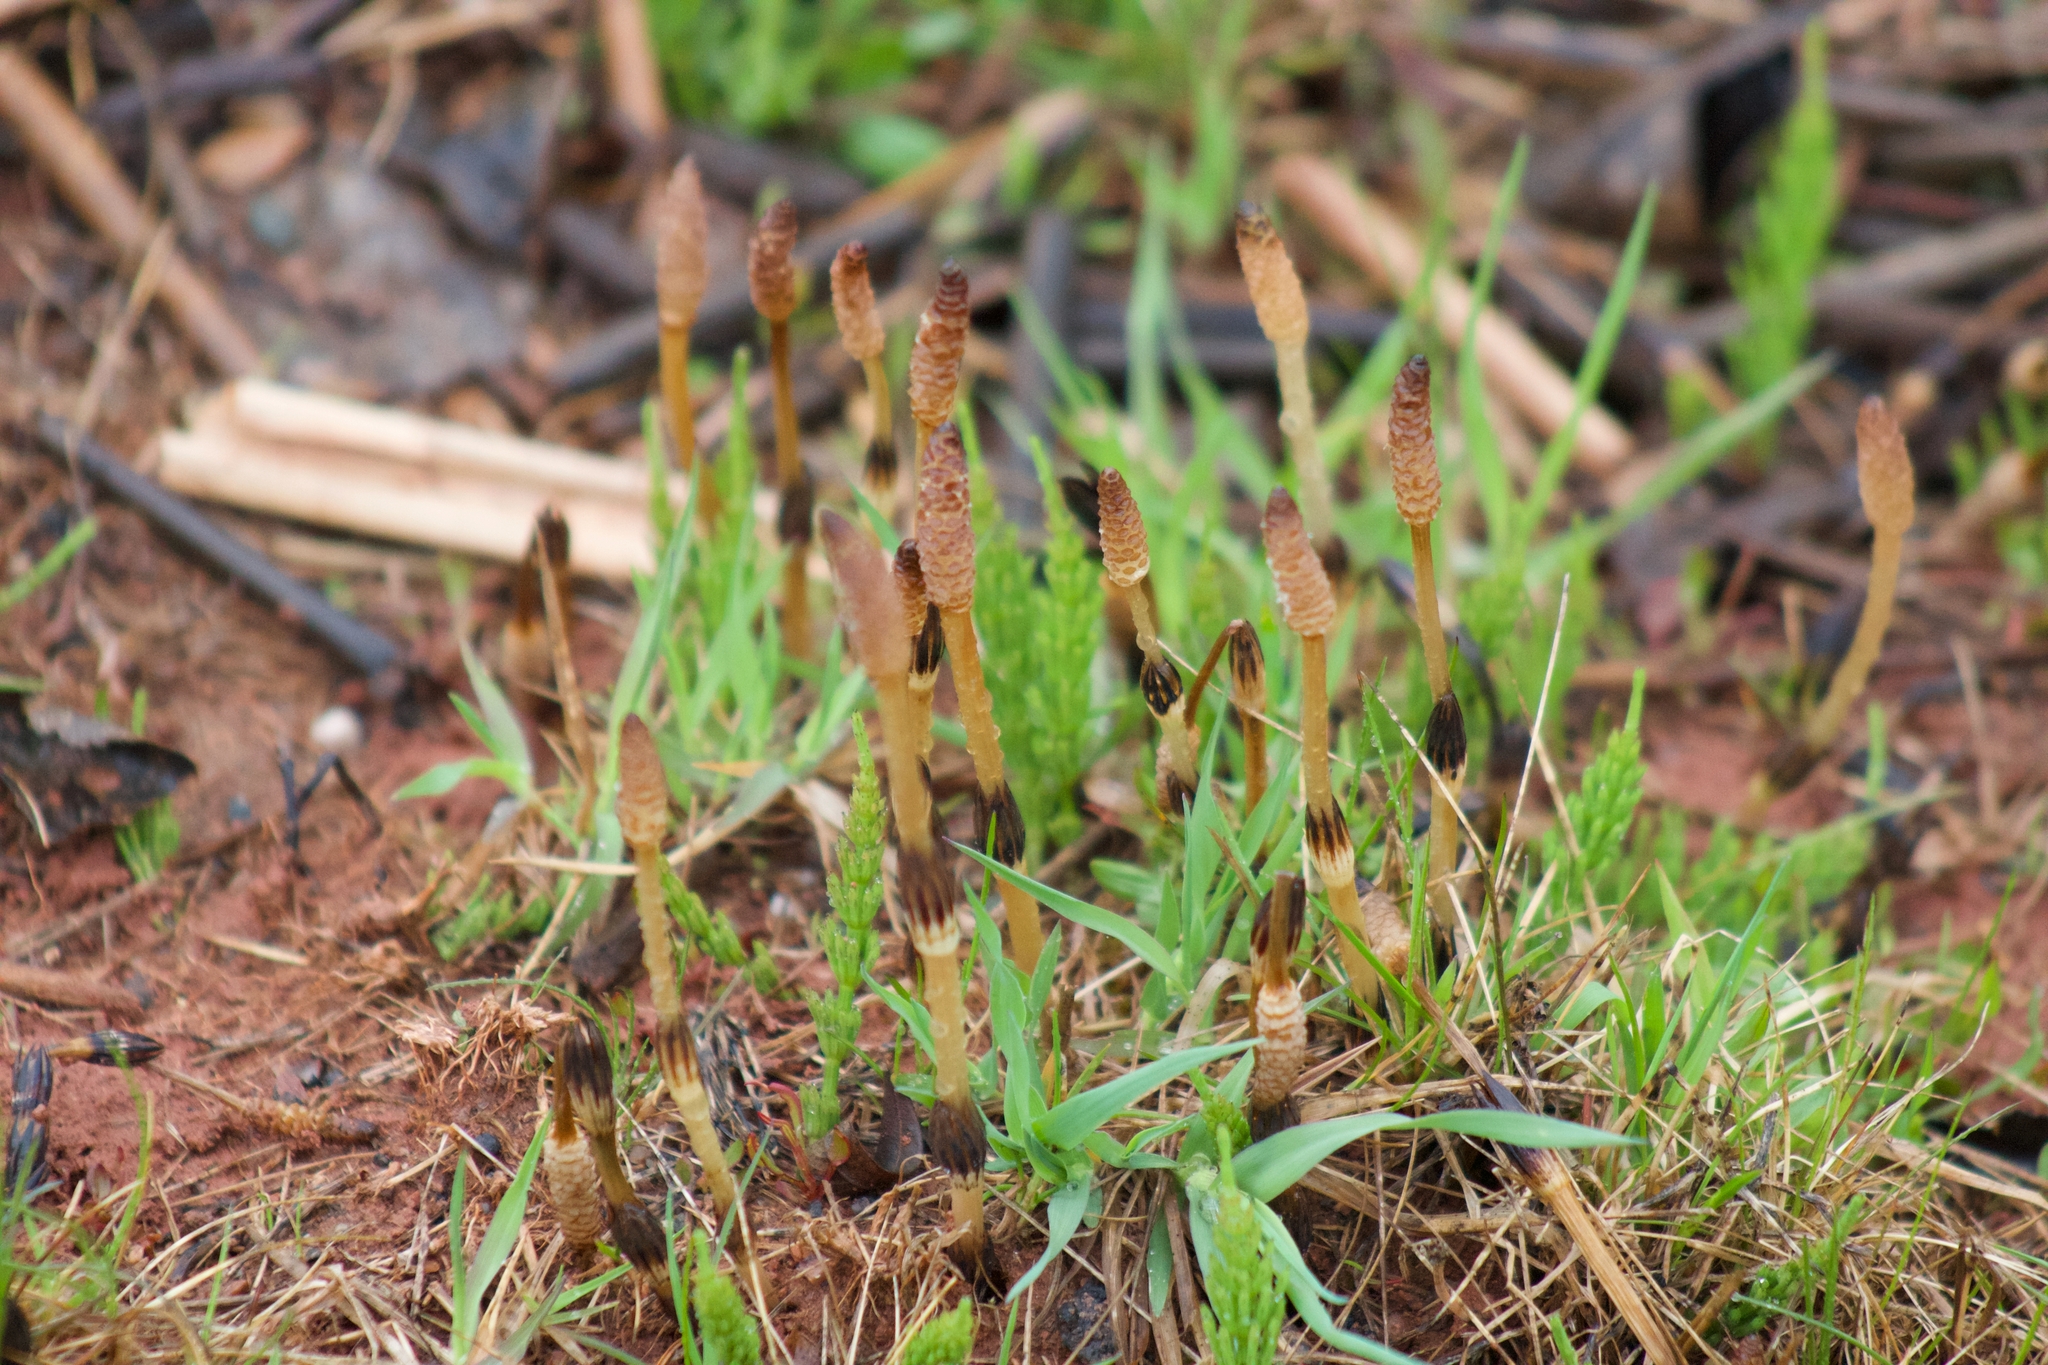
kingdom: Plantae
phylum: Tracheophyta
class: Polypodiopsida
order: Equisetales
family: Equisetaceae
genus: Equisetum
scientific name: Equisetum arvense
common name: Field horsetail
